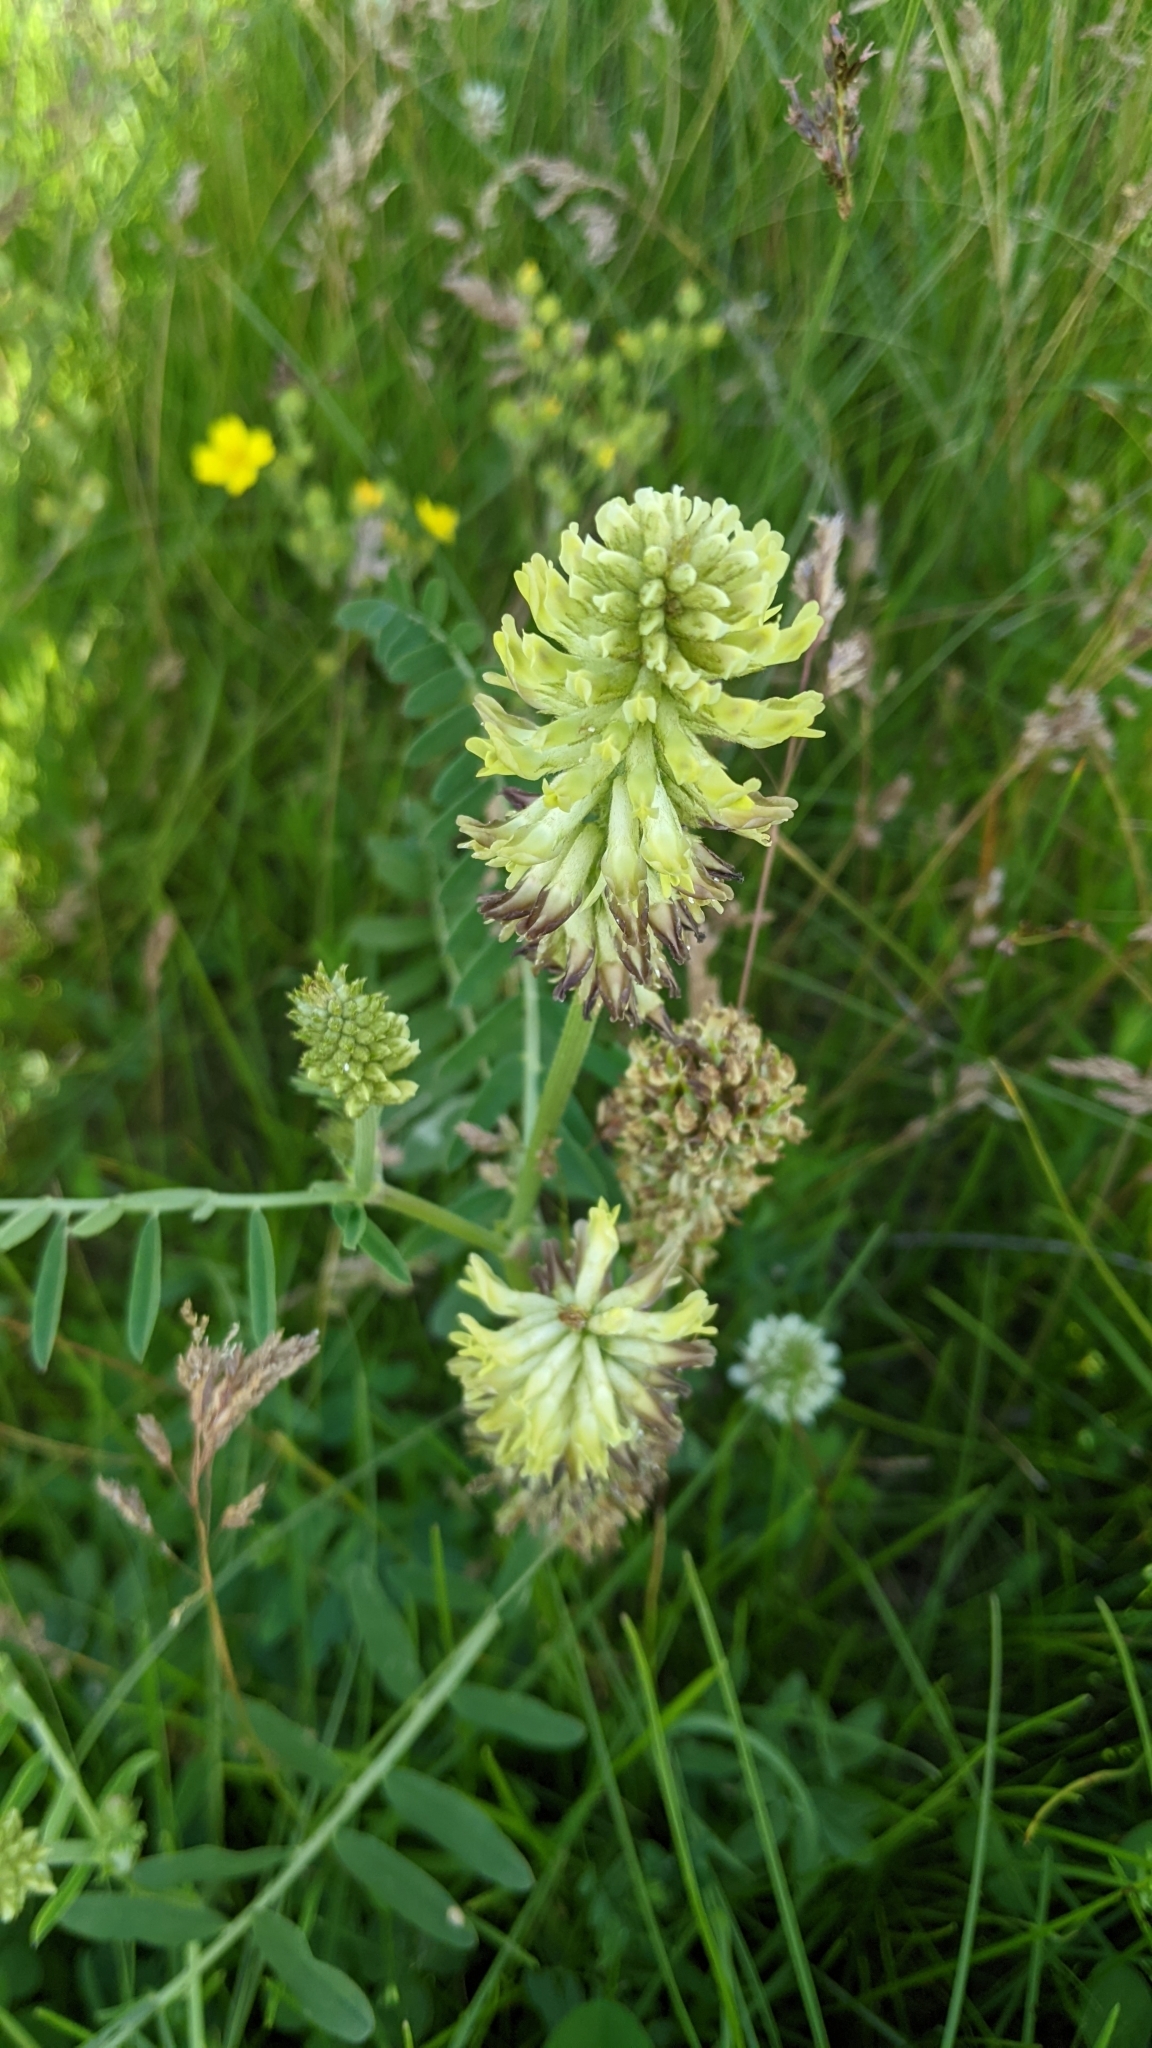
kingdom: Plantae
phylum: Tracheophyta
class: Magnoliopsida
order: Fabales
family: Fabaceae
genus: Astragalus
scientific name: Astragalus canadensis
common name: Canada milk-vetch
